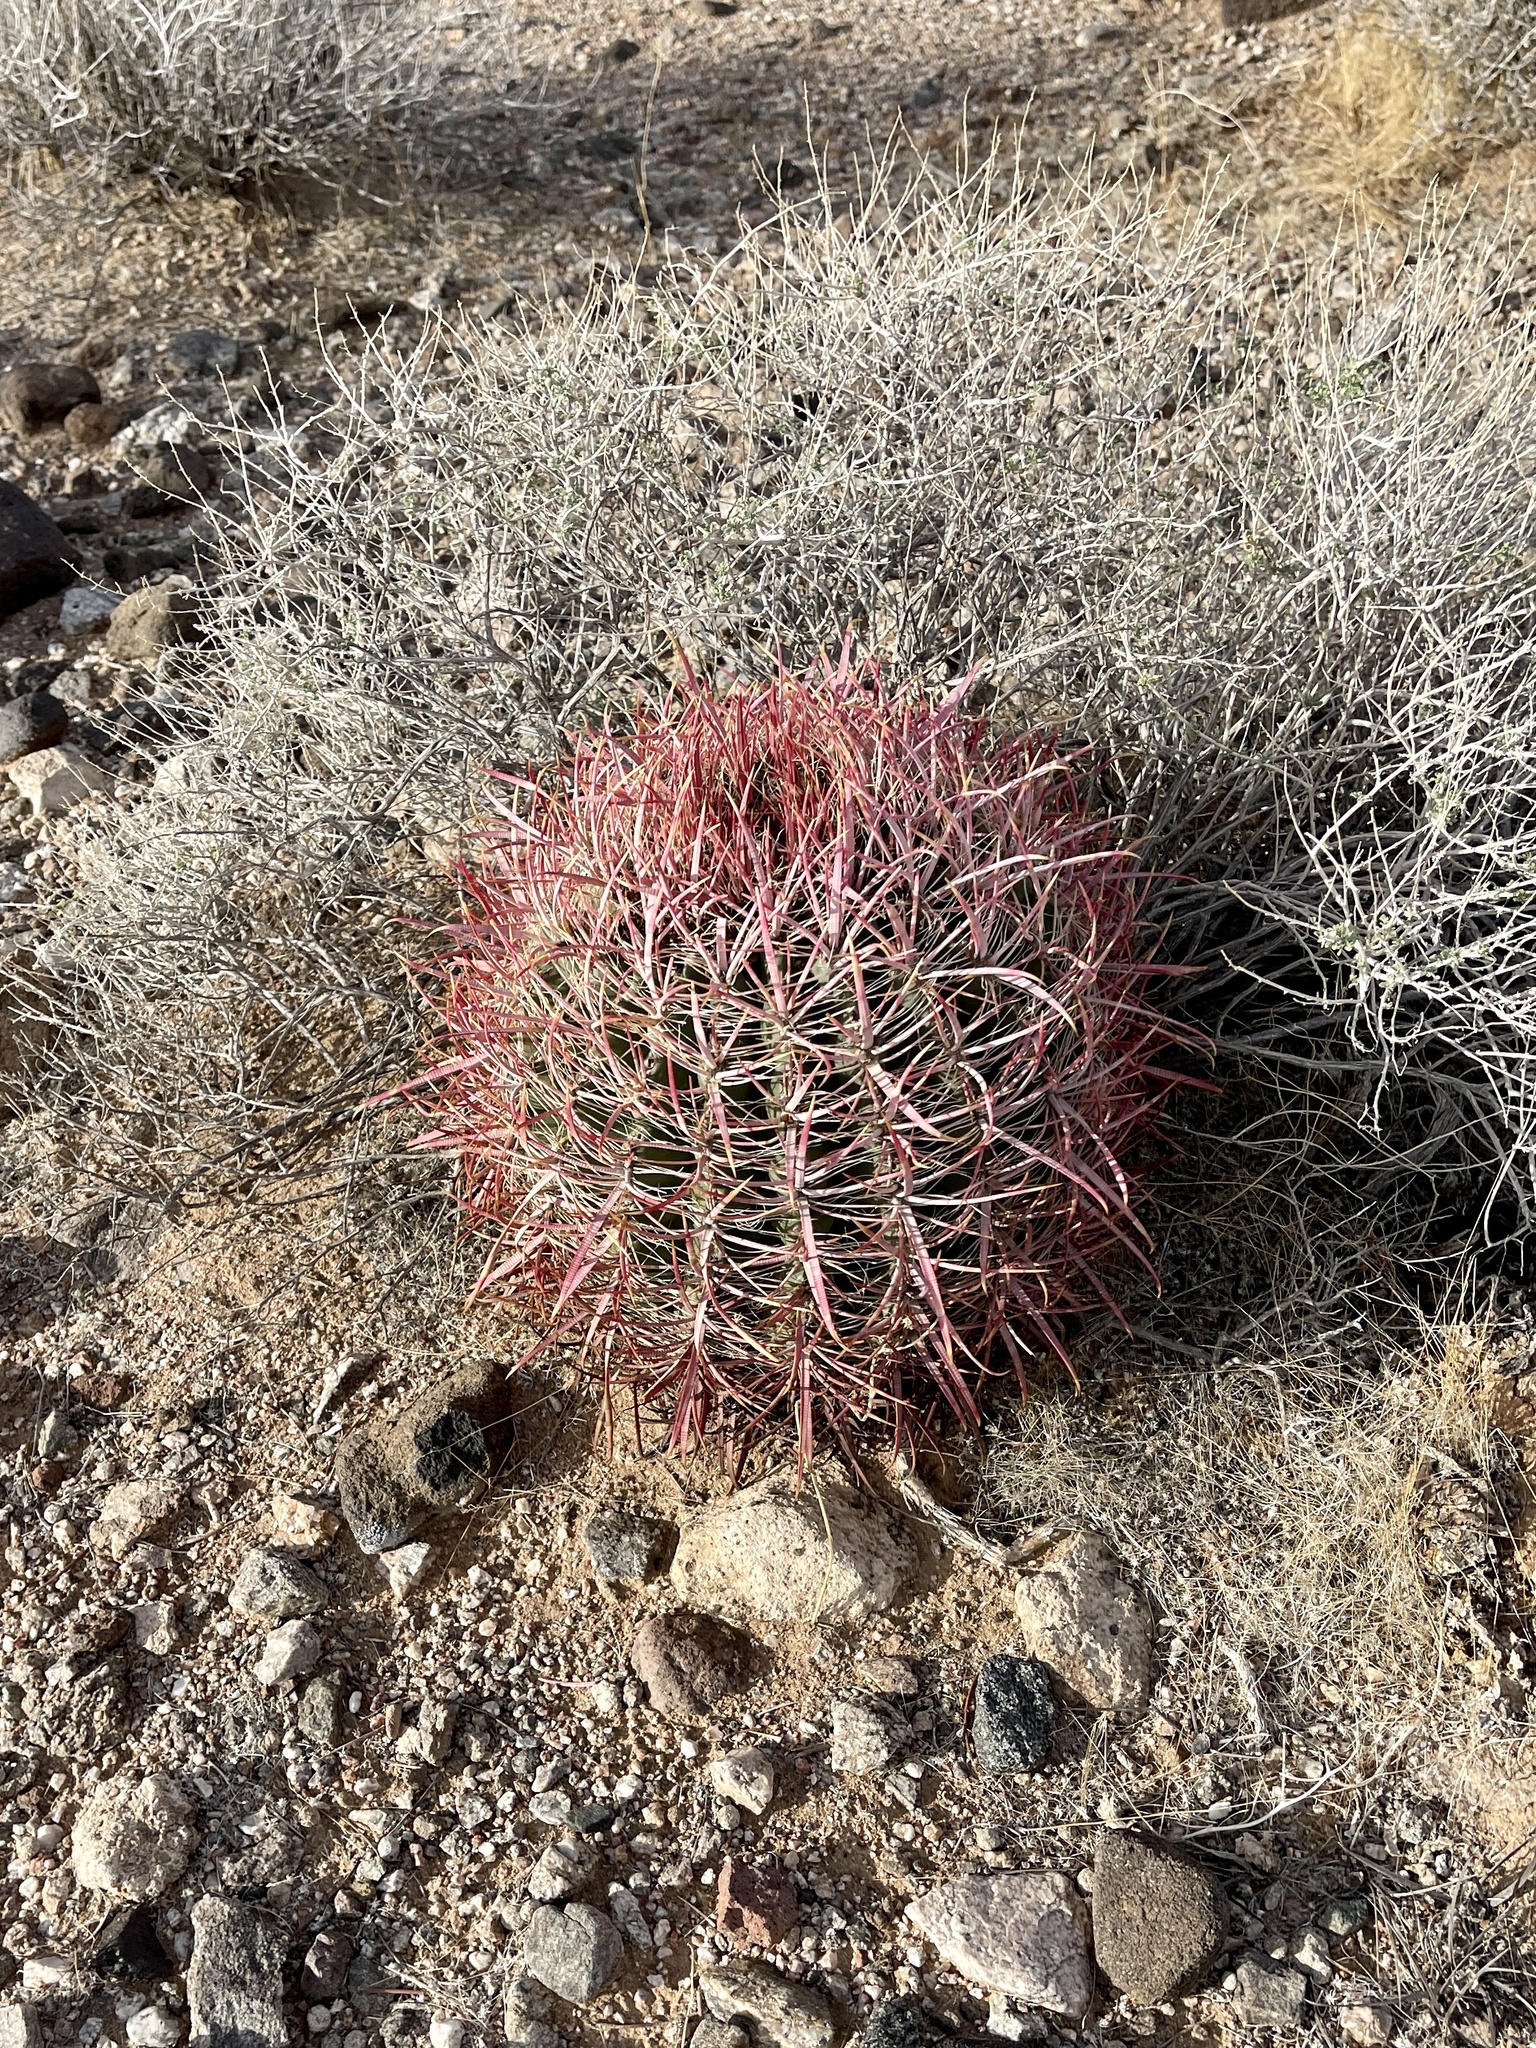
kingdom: Plantae
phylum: Tracheophyta
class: Magnoliopsida
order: Caryophyllales
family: Cactaceae
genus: Ferocactus
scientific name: Ferocactus cylindraceus
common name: California barrel cactus
